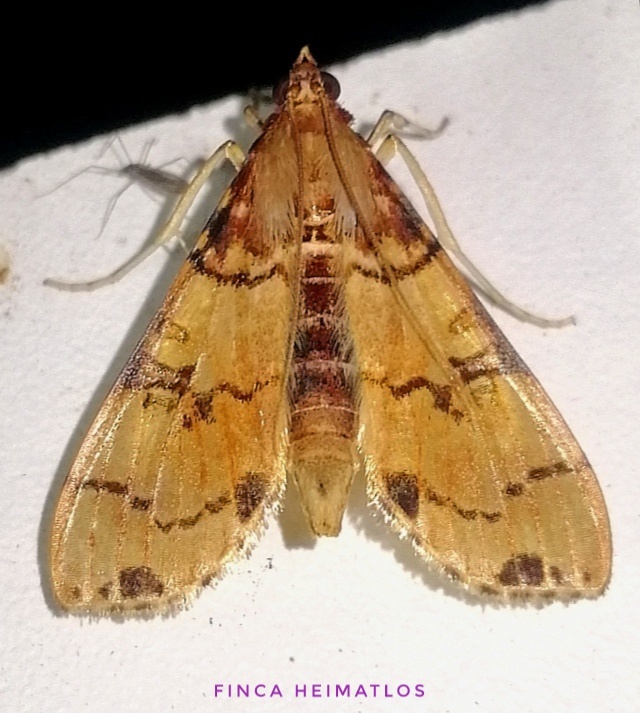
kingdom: Animalia
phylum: Arthropoda
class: Insecta
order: Lepidoptera
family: Crambidae
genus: Azochis
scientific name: Azochis gripusalis
